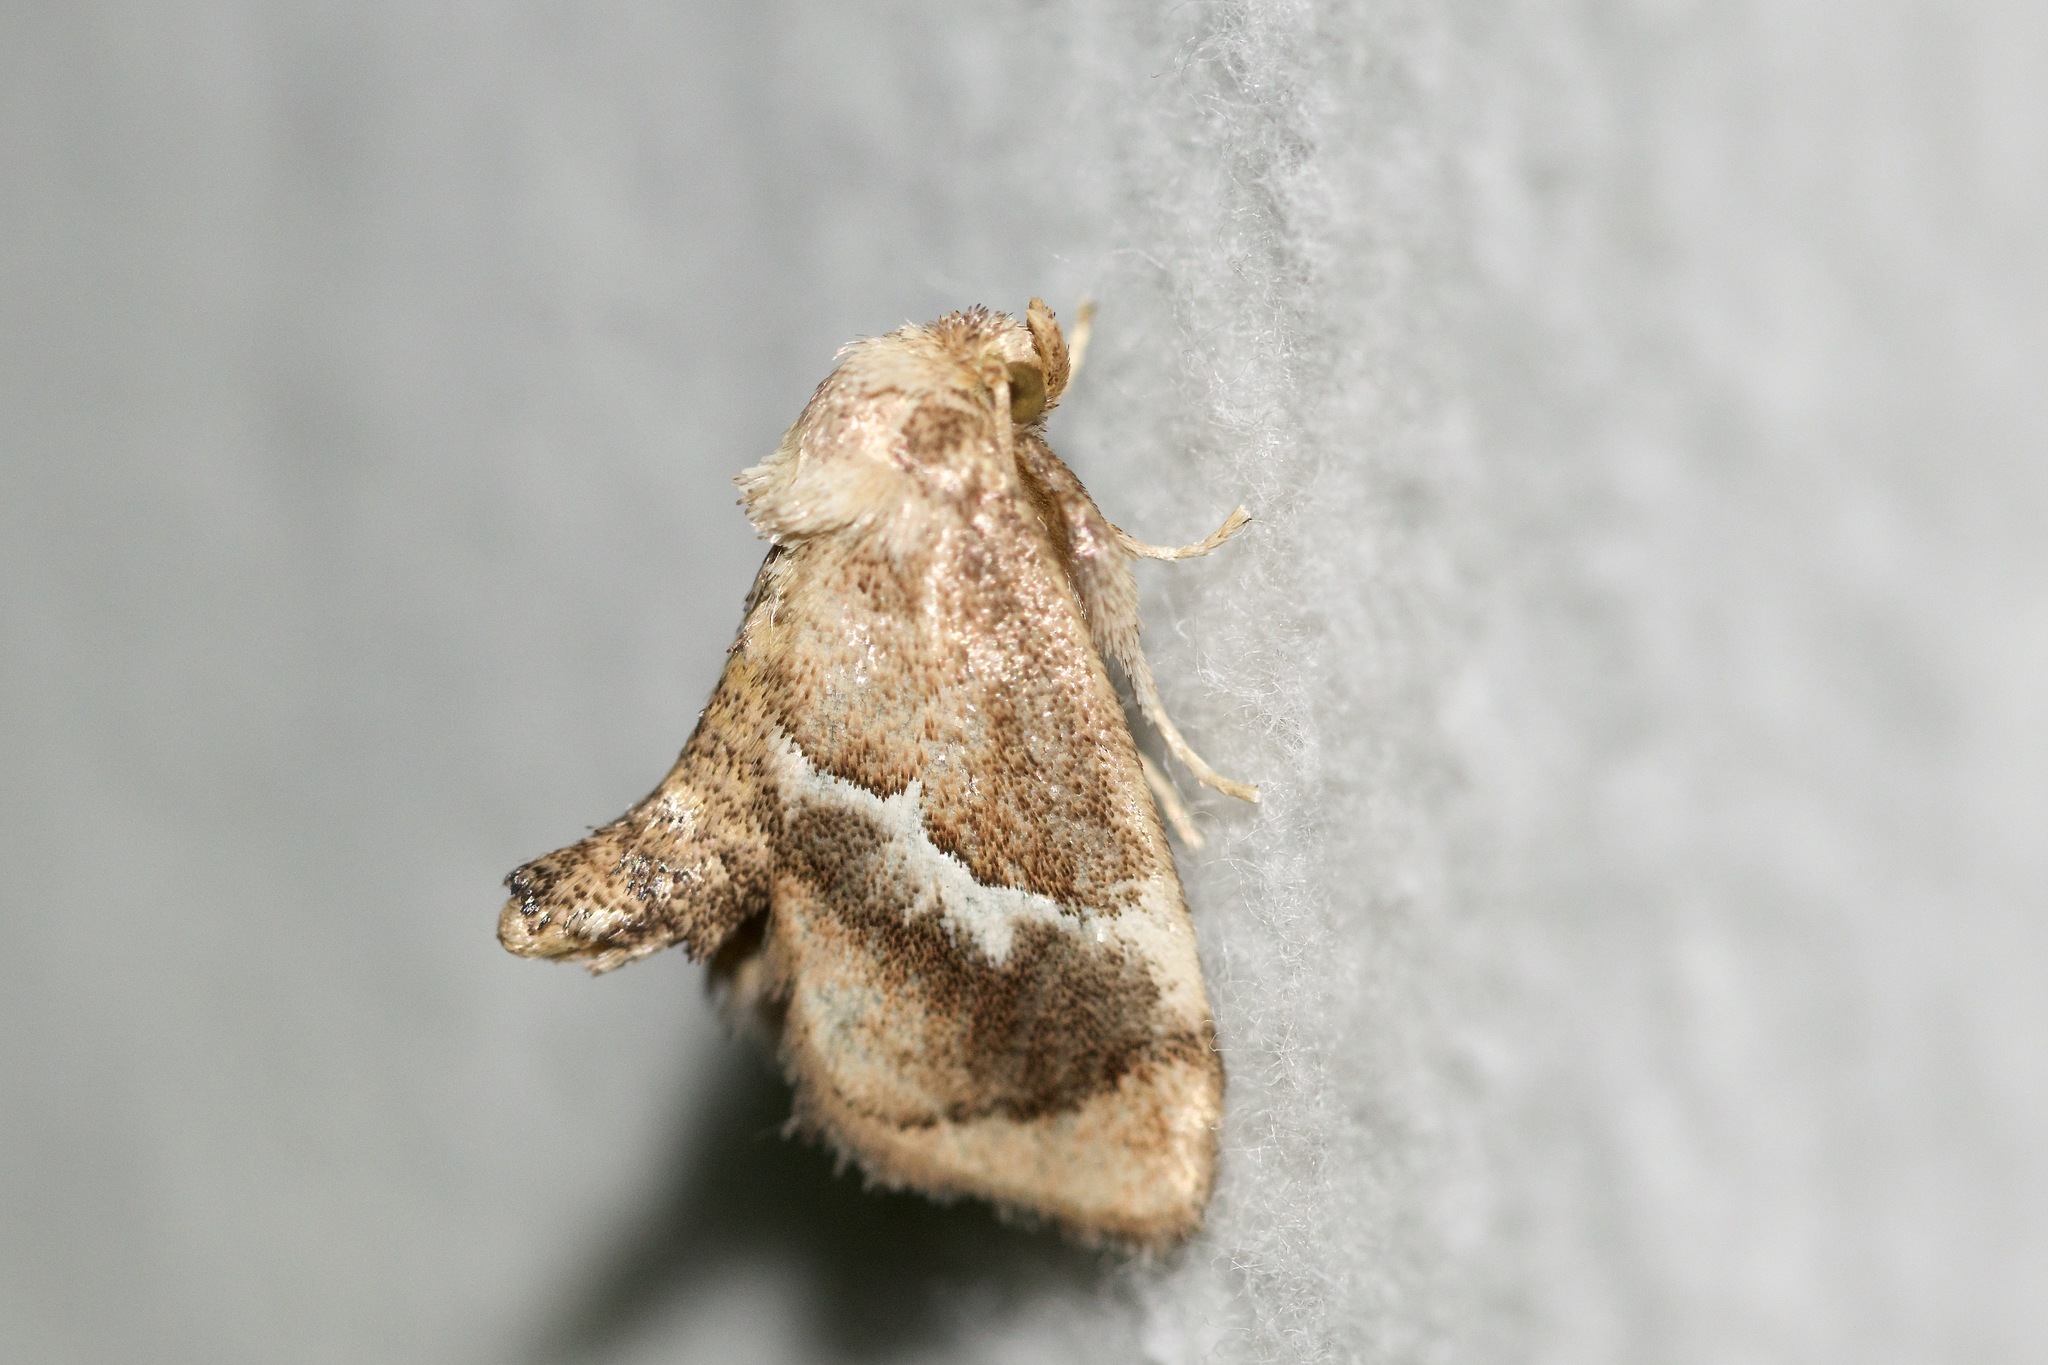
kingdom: Animalia
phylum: Arthropoda
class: Insecta
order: Lepidoptera
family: Limacodidae
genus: Lithacodes
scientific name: Lithacodes fasciola
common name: Yellow-shouldered slug moth
